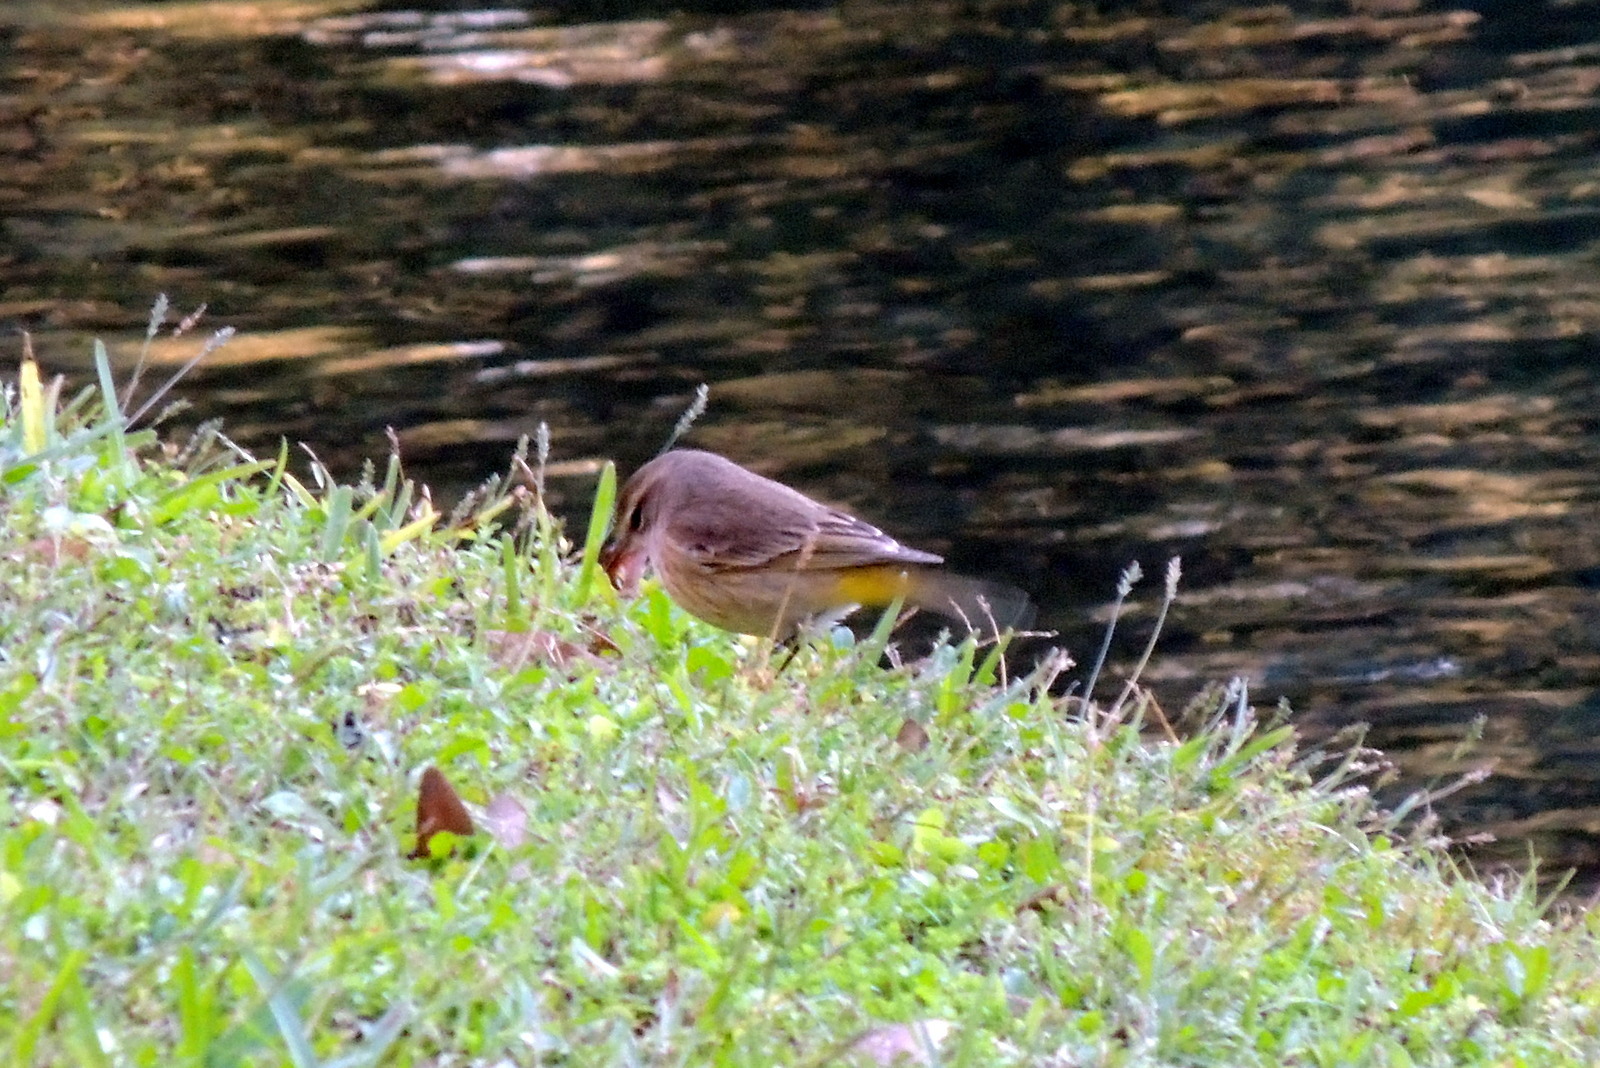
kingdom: Animalia
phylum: Chordata
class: Aves
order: Passeriformes
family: Parulidae
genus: Setophaga
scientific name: Setophaga palmarum
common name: Palm warbler
